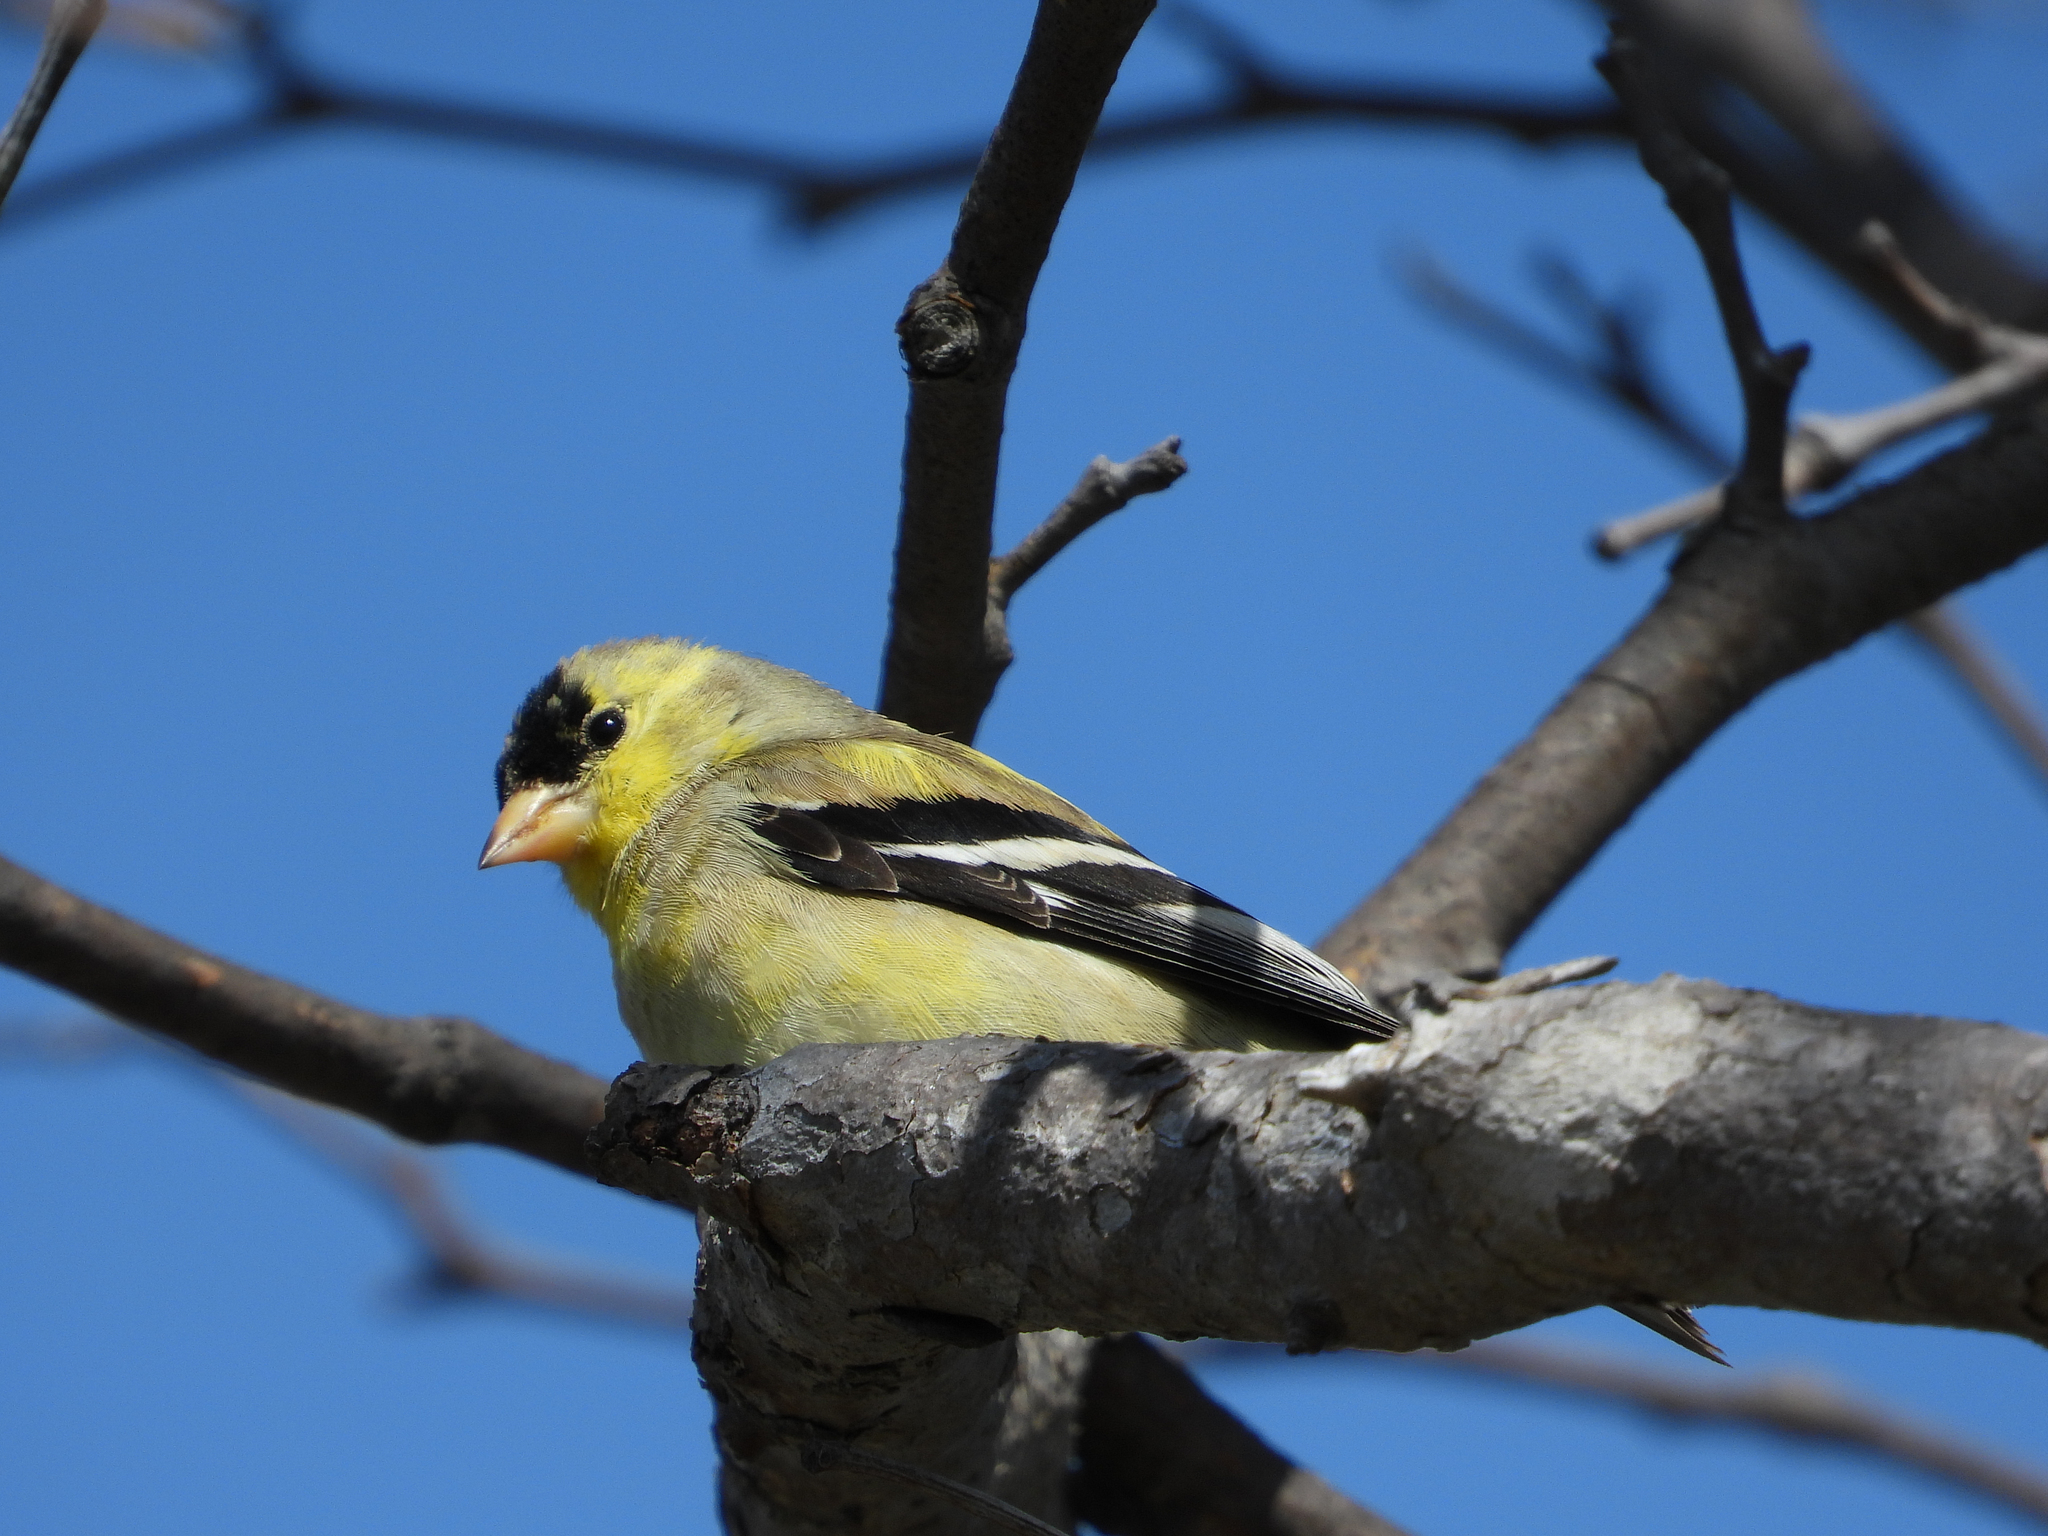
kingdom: Animalia
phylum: Chordata
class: Aves
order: Passeriformes
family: Fringillidae
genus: Spinus
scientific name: Spinus tristis
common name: American goldfinch
